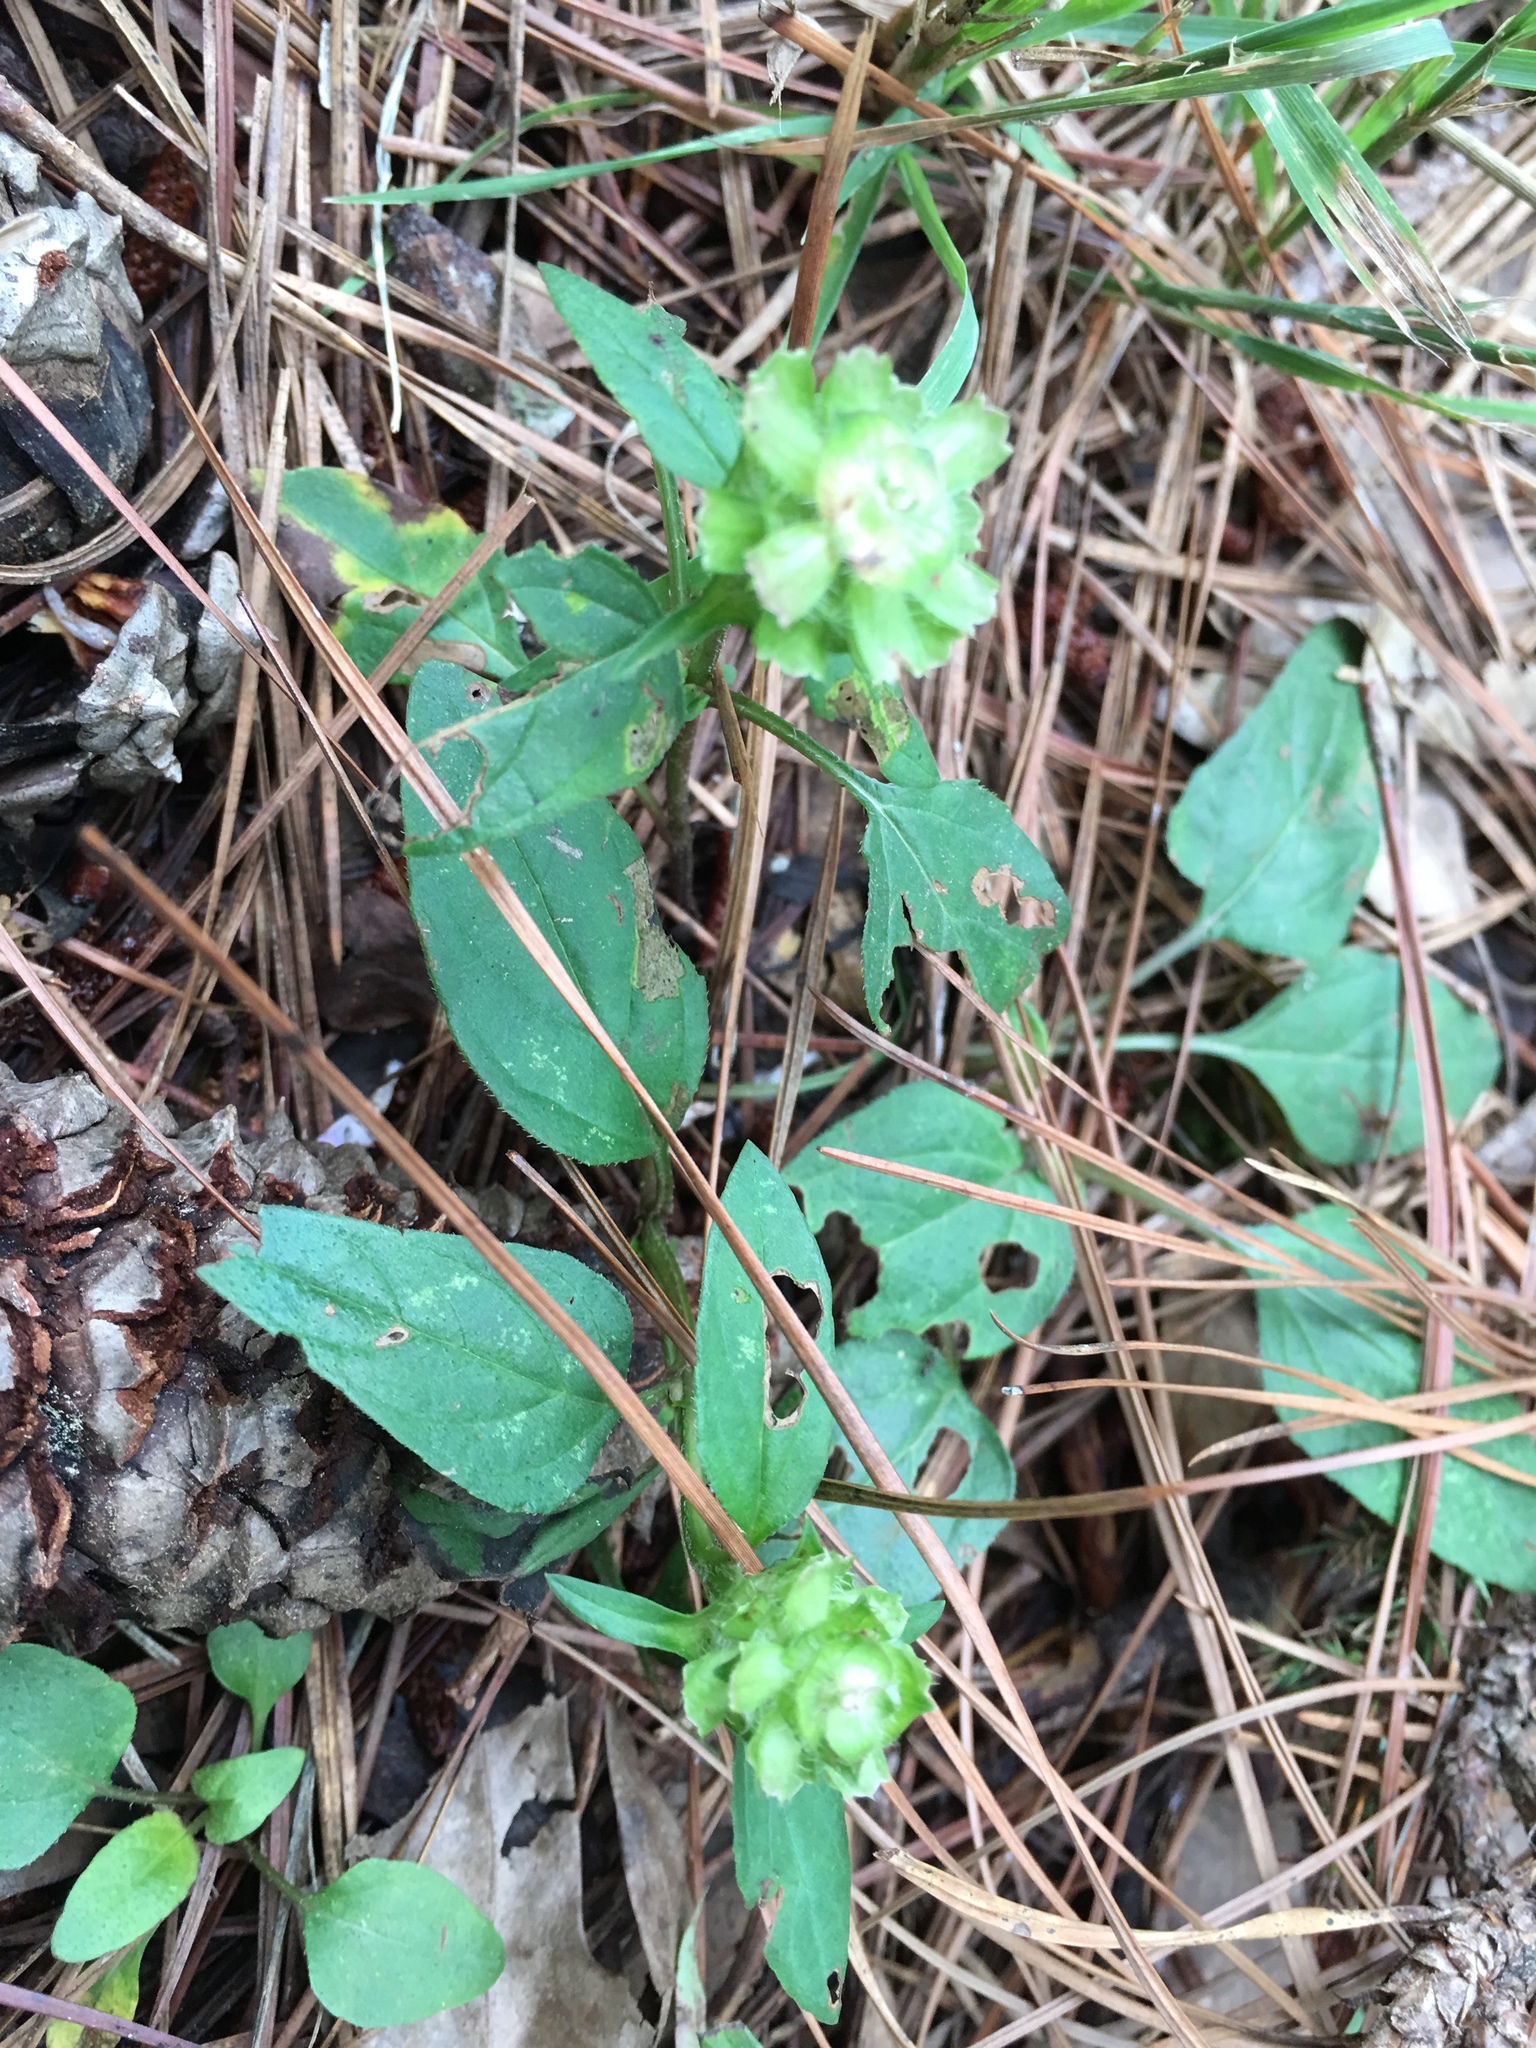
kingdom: Plantae
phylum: Tracheophyta
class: Magnoliopsida
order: Lamiales
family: Lamiaceae
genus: Prunella
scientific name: Prunella vulgaris
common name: Heal-all
